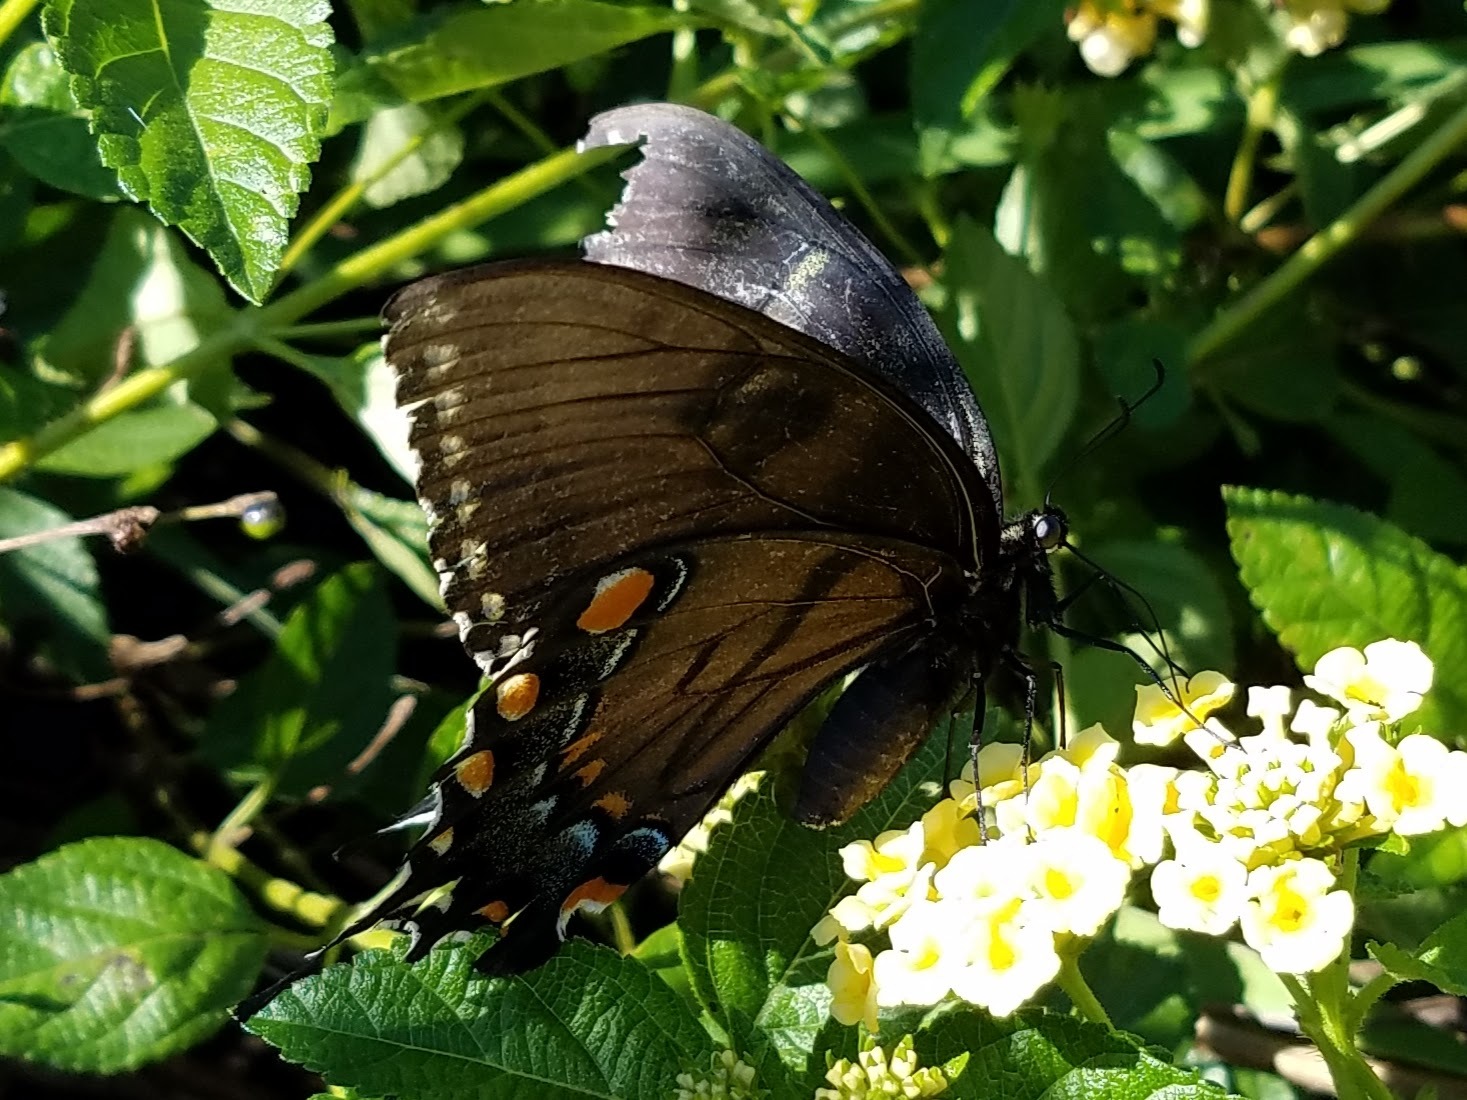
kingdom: Animalia
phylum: Arthropoda
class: Insecta
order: Lepidoptera
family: Papilionidae
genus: Papilio
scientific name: Papilio glaucus
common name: Tiger swallowtail
